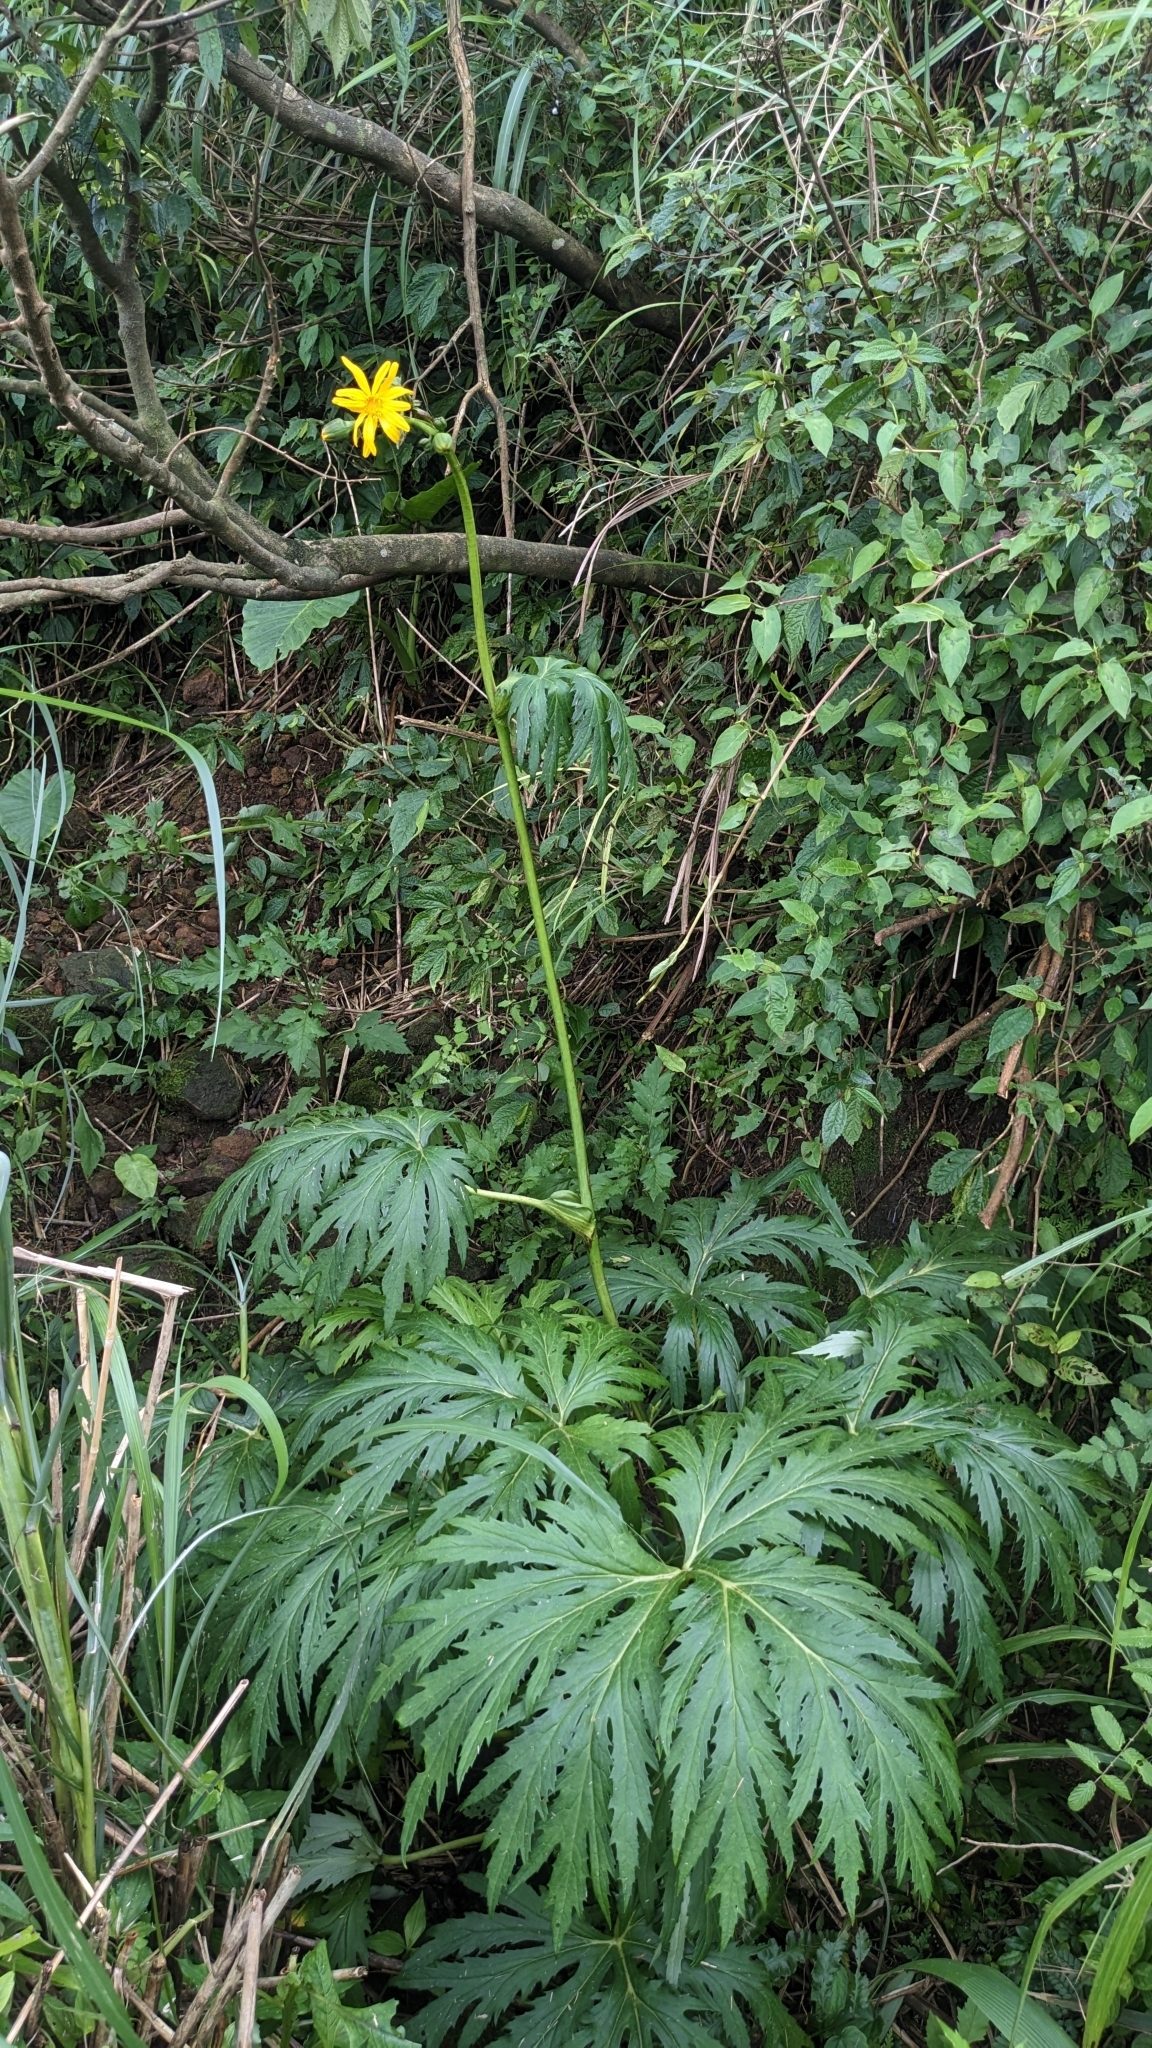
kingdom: Plantae
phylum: Tracheophyta
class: Magnoliopsida
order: Asterales
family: Asteraceae
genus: Ligularia
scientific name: Ligularia japonica
